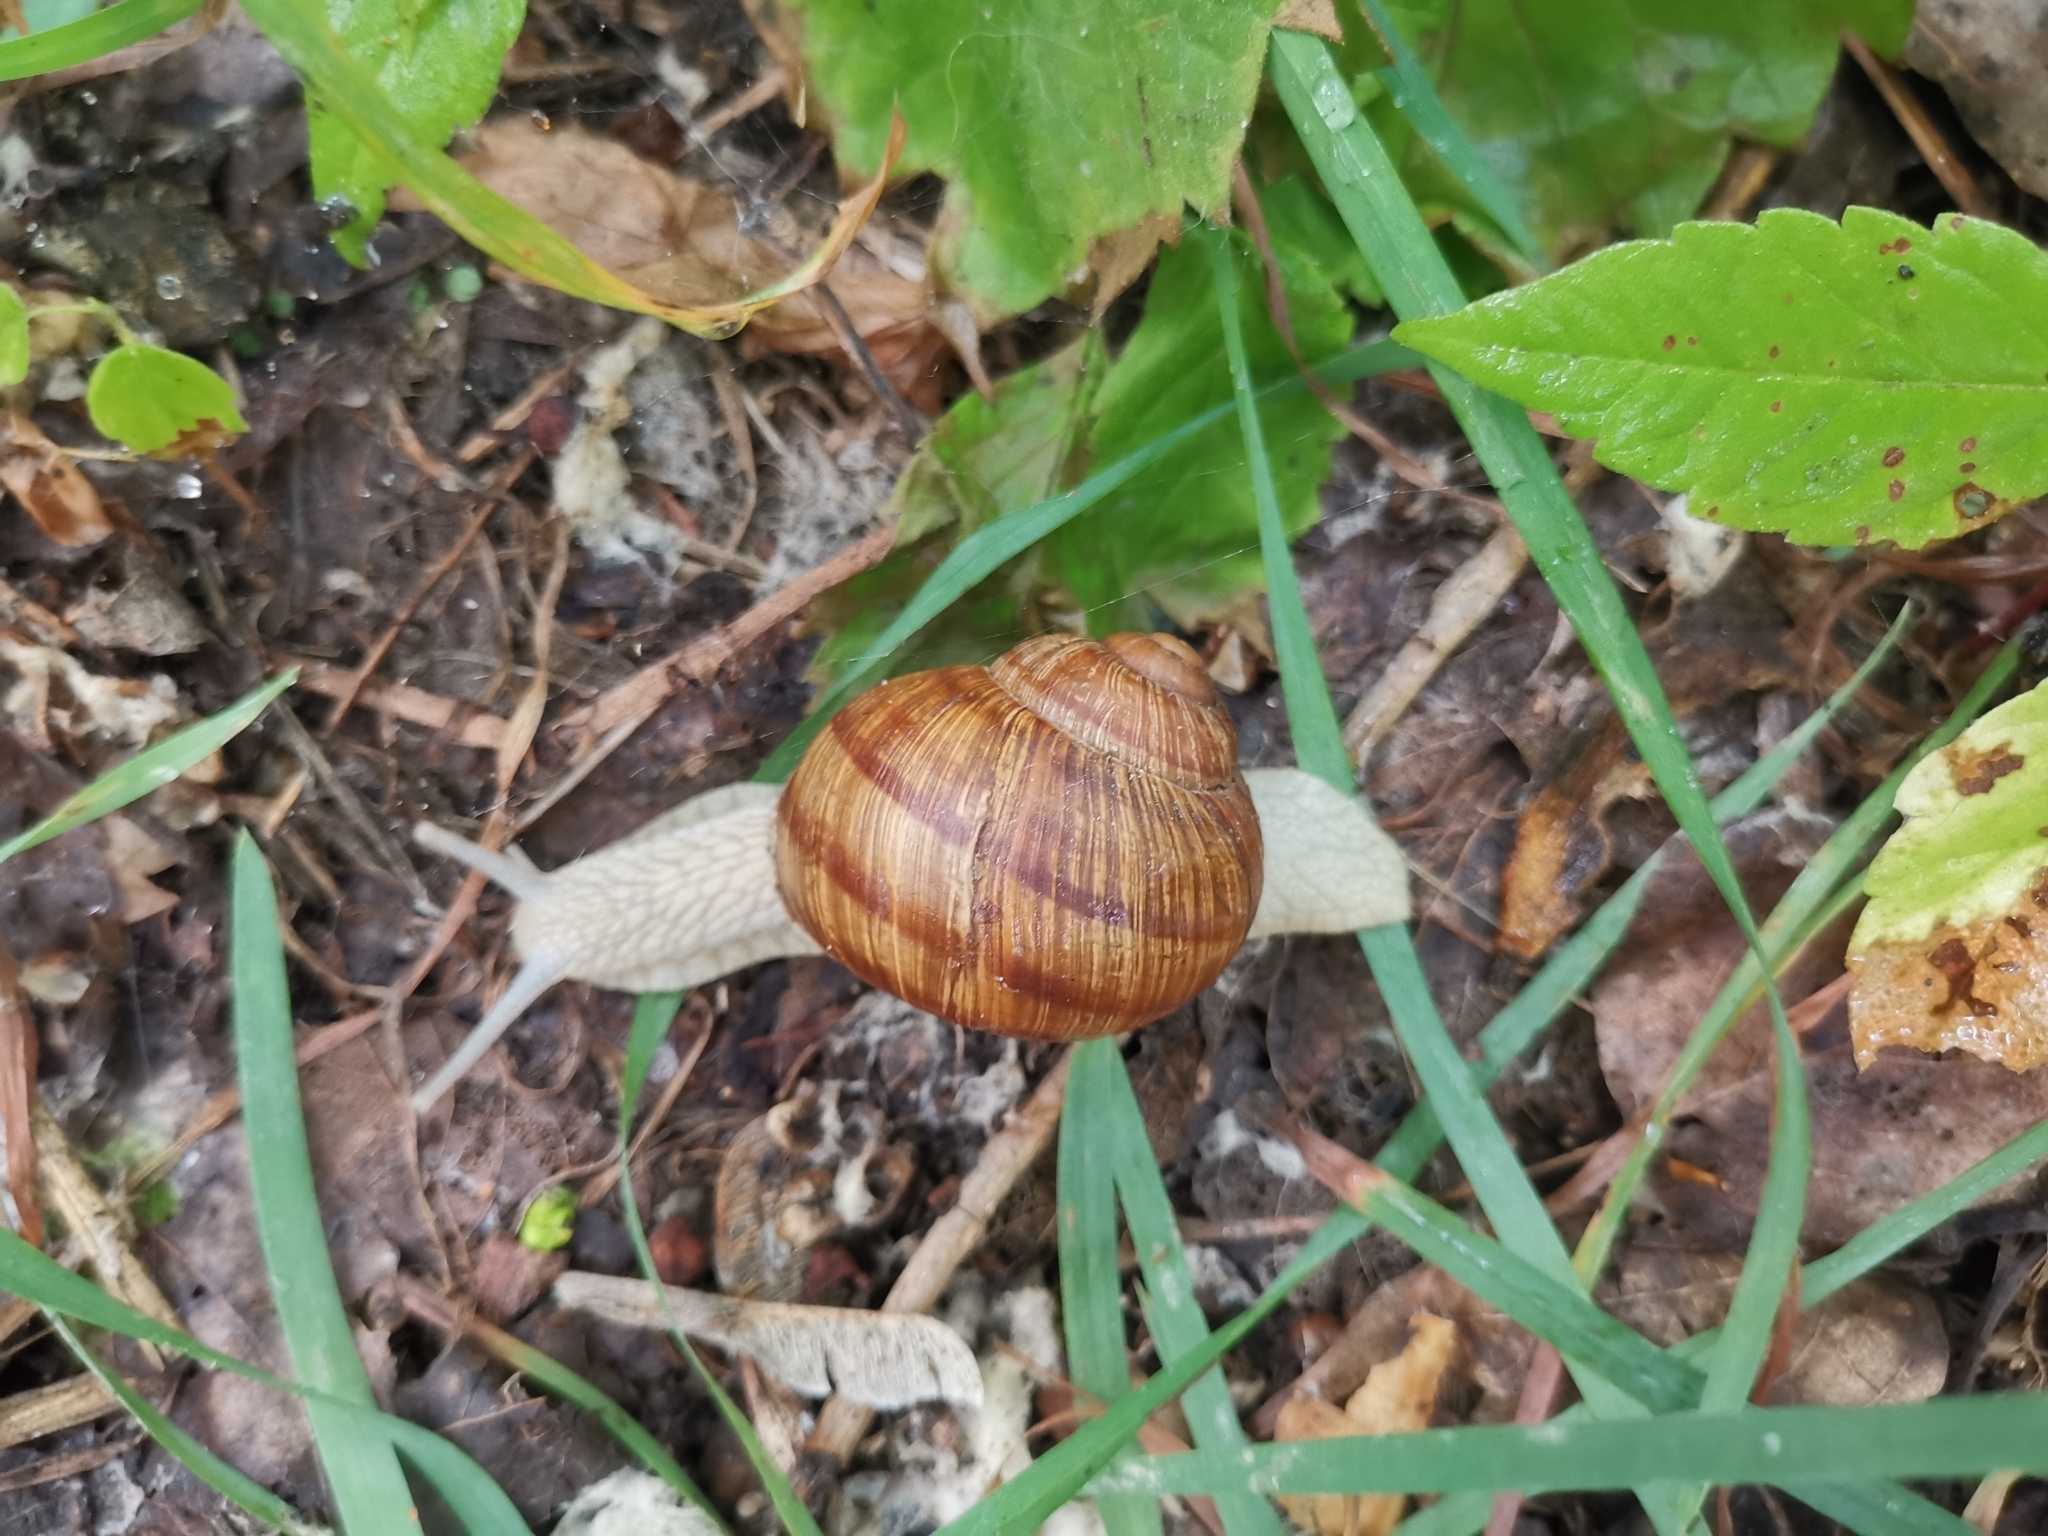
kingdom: Animalia
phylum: Mollusca
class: Gastropoda
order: Stylommatophora
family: Helicidae
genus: Helix
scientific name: Helix pomatia
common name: Roman snail
